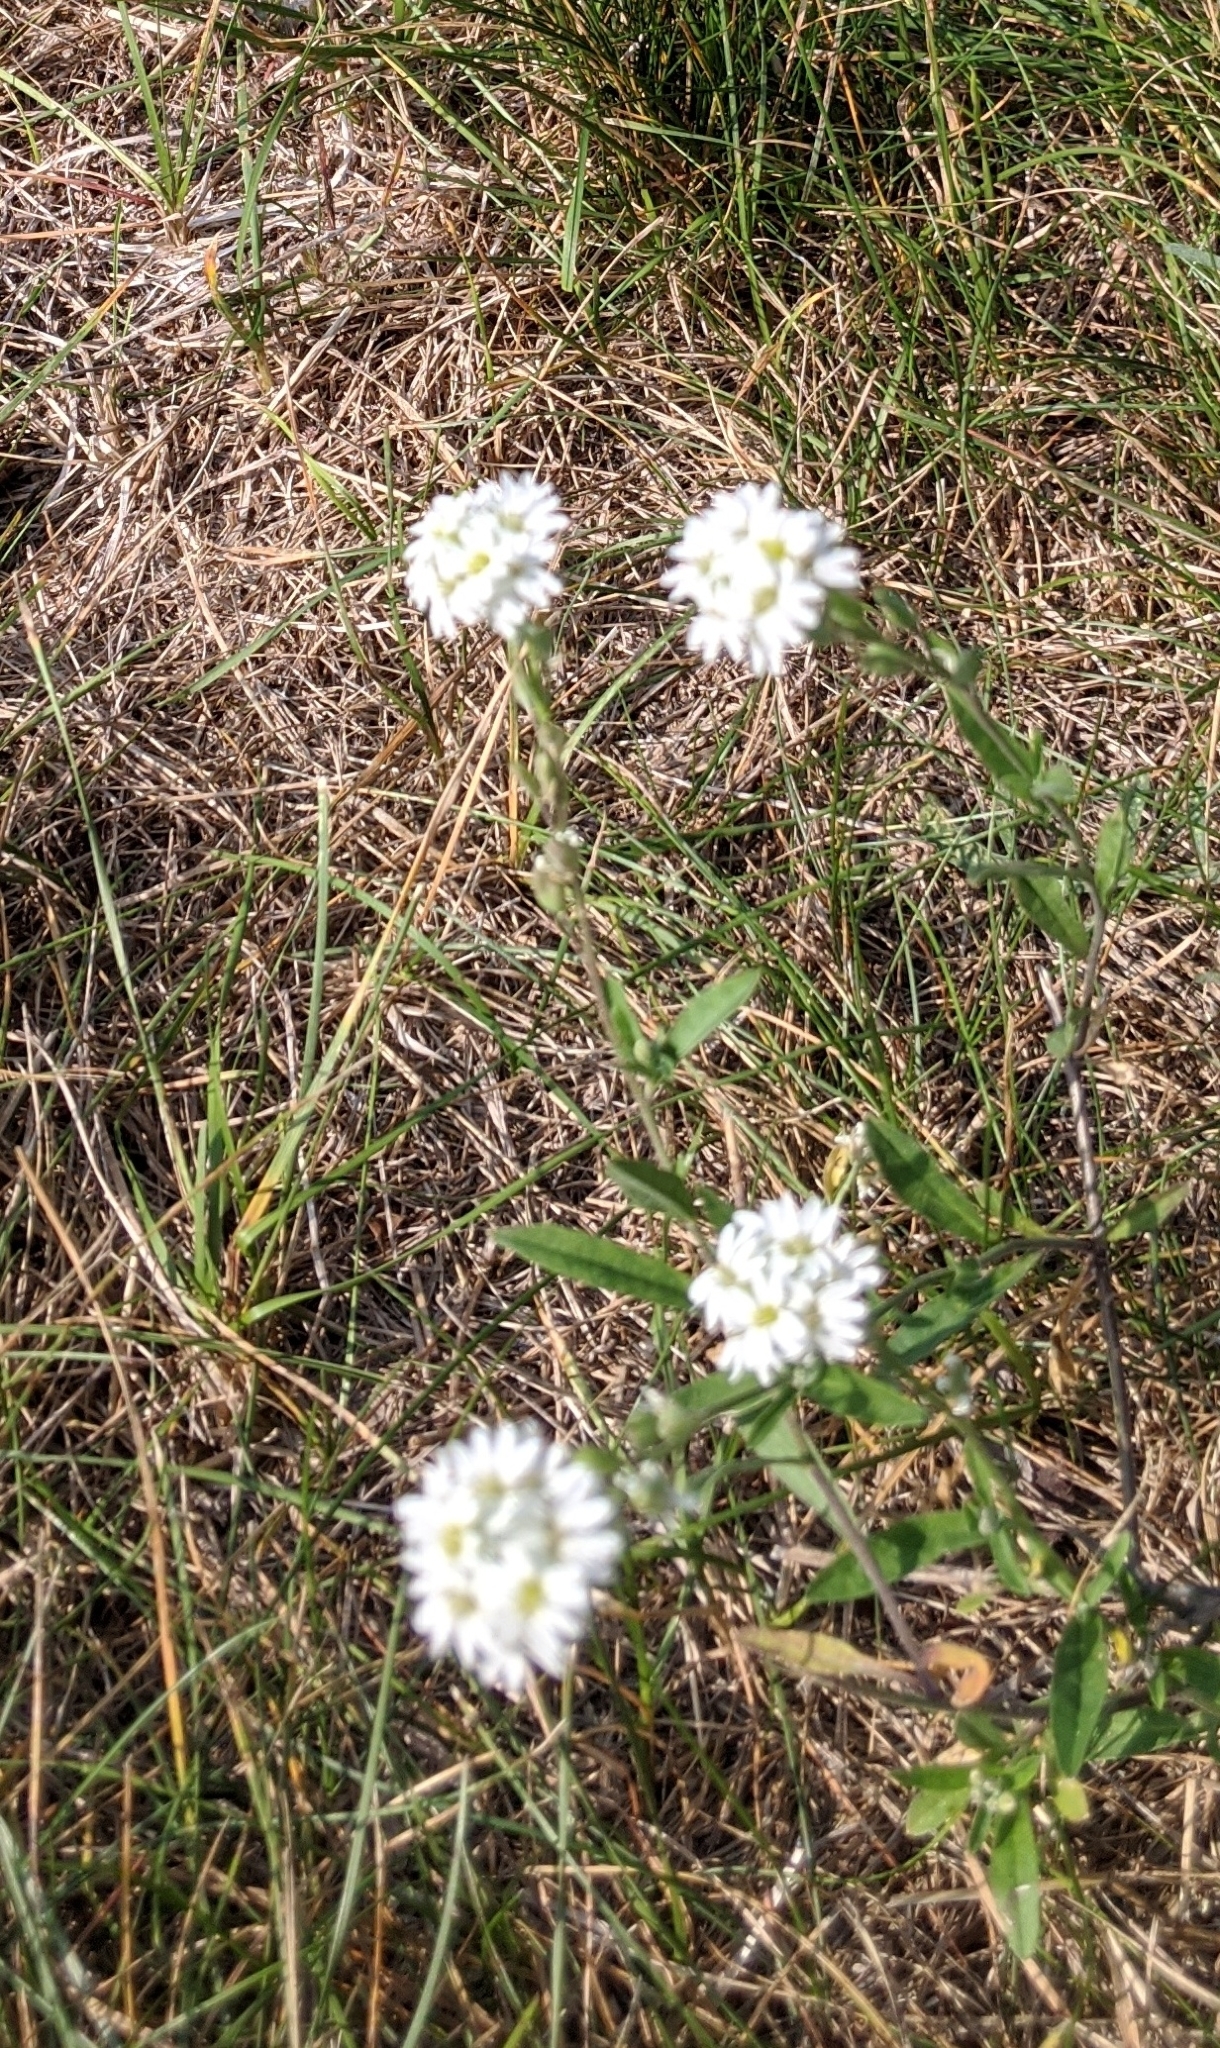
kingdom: Plantae
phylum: Tracheophyta
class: Magnoliopsida
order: Brassicales
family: Brassicaceae
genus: Berteroa
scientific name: Berteroa incana
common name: Hoary alison
